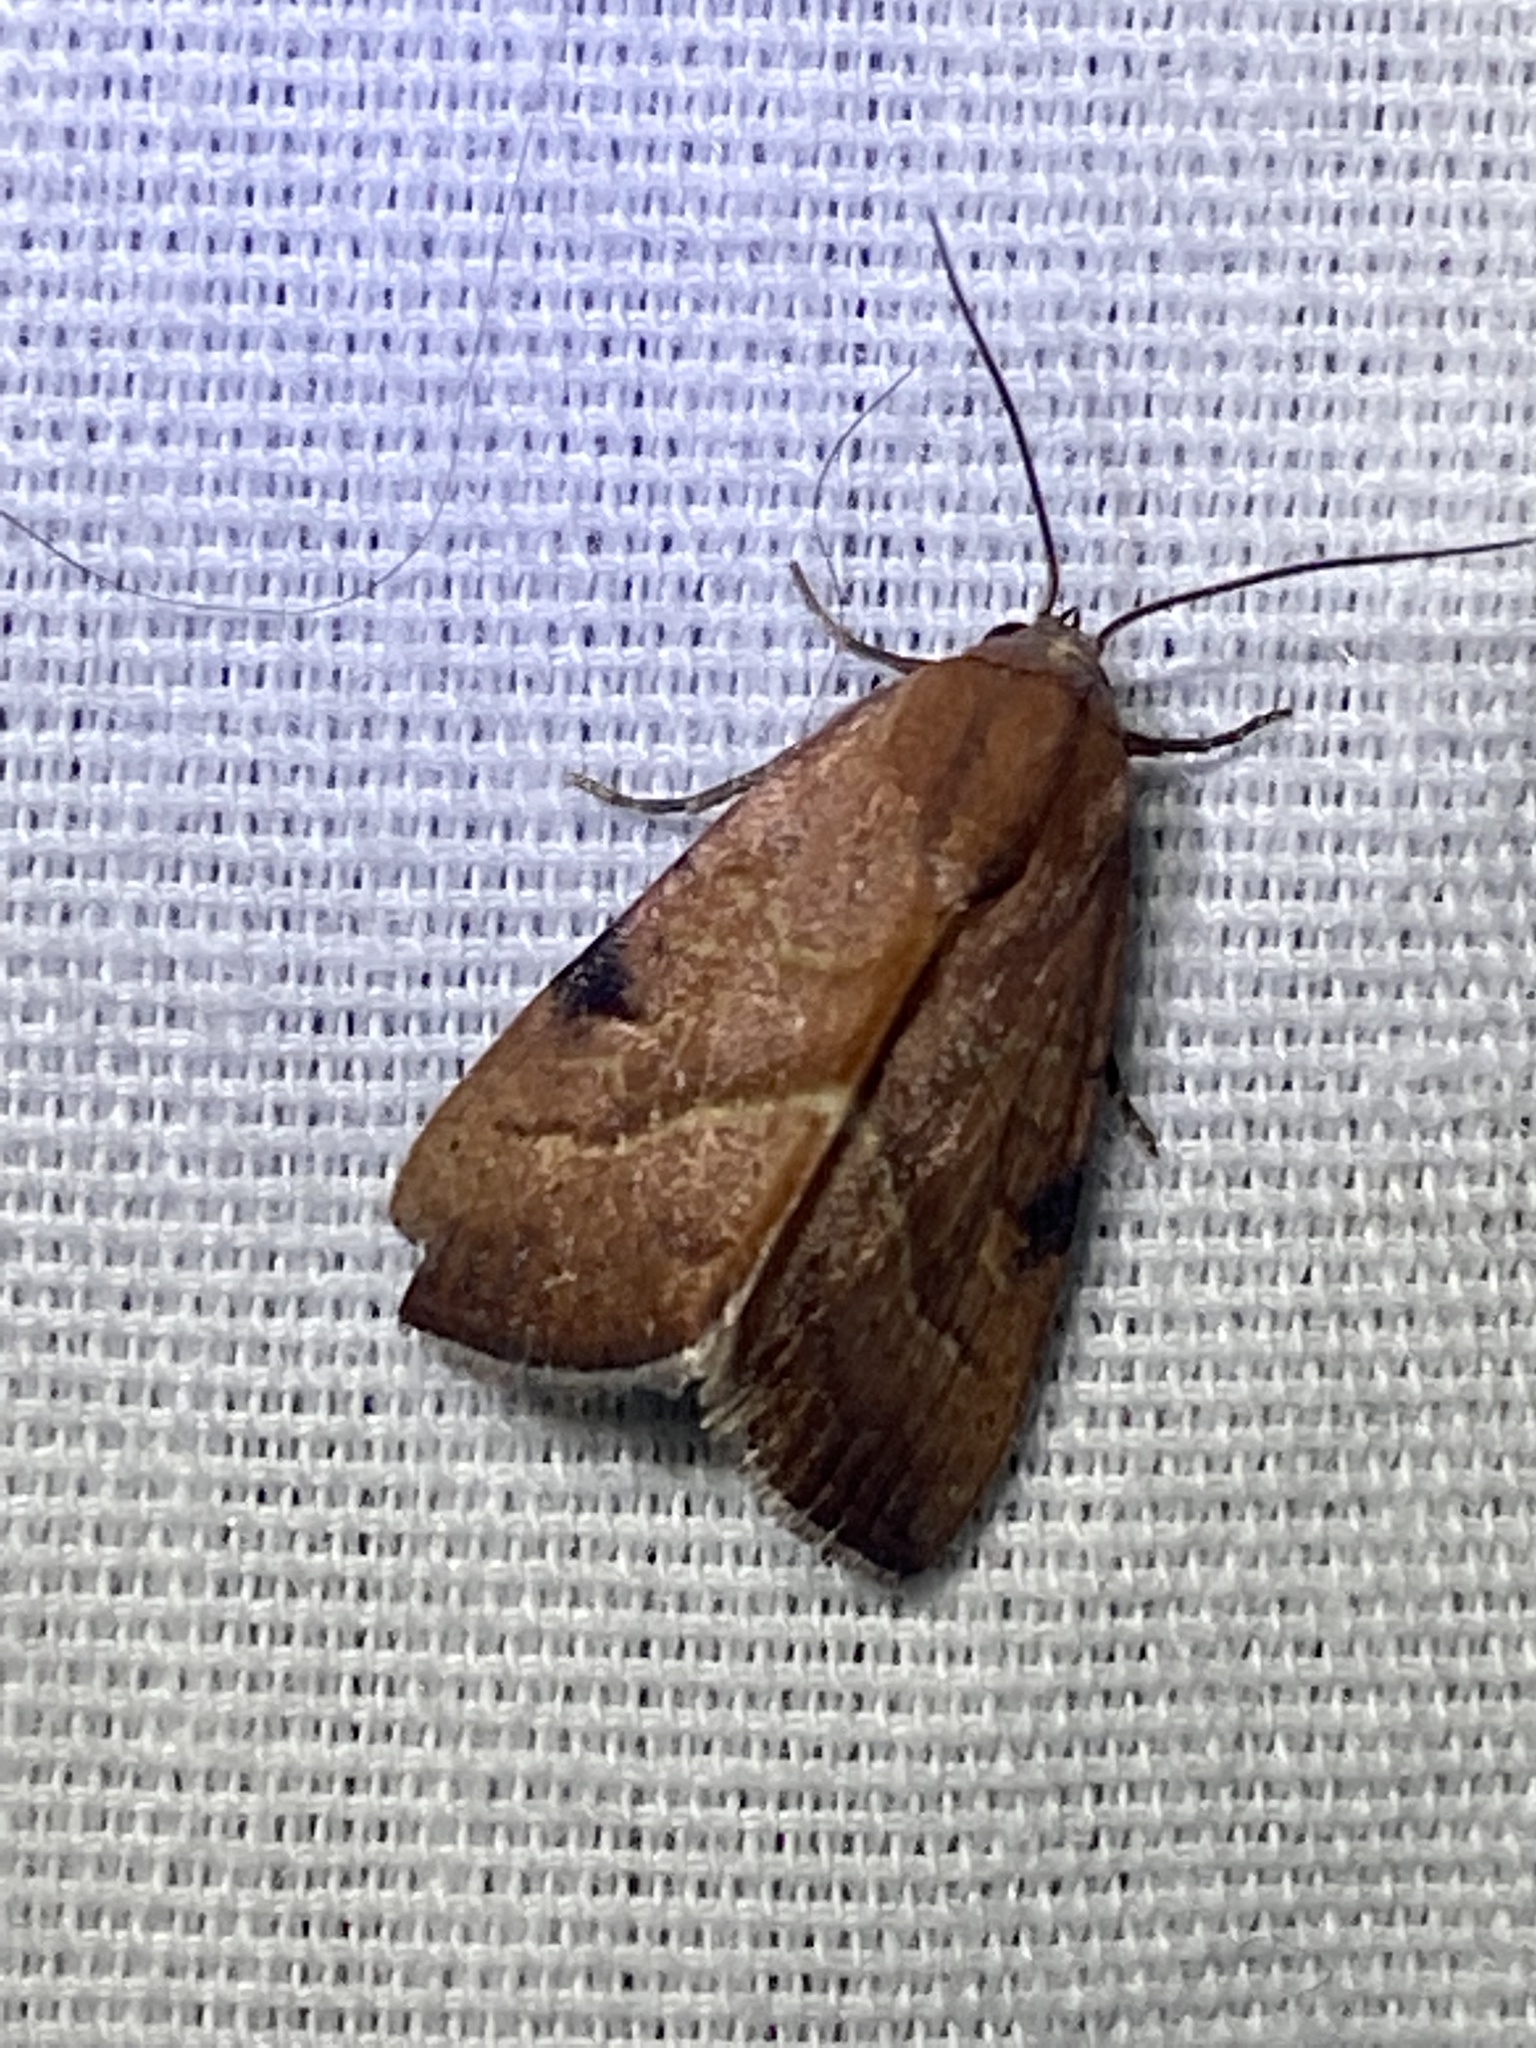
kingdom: Animalia
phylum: Arthropoda
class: Insecta
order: Lepidoptera
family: Noctuidae
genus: Galgula
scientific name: Galgula partita
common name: Wedgeling
